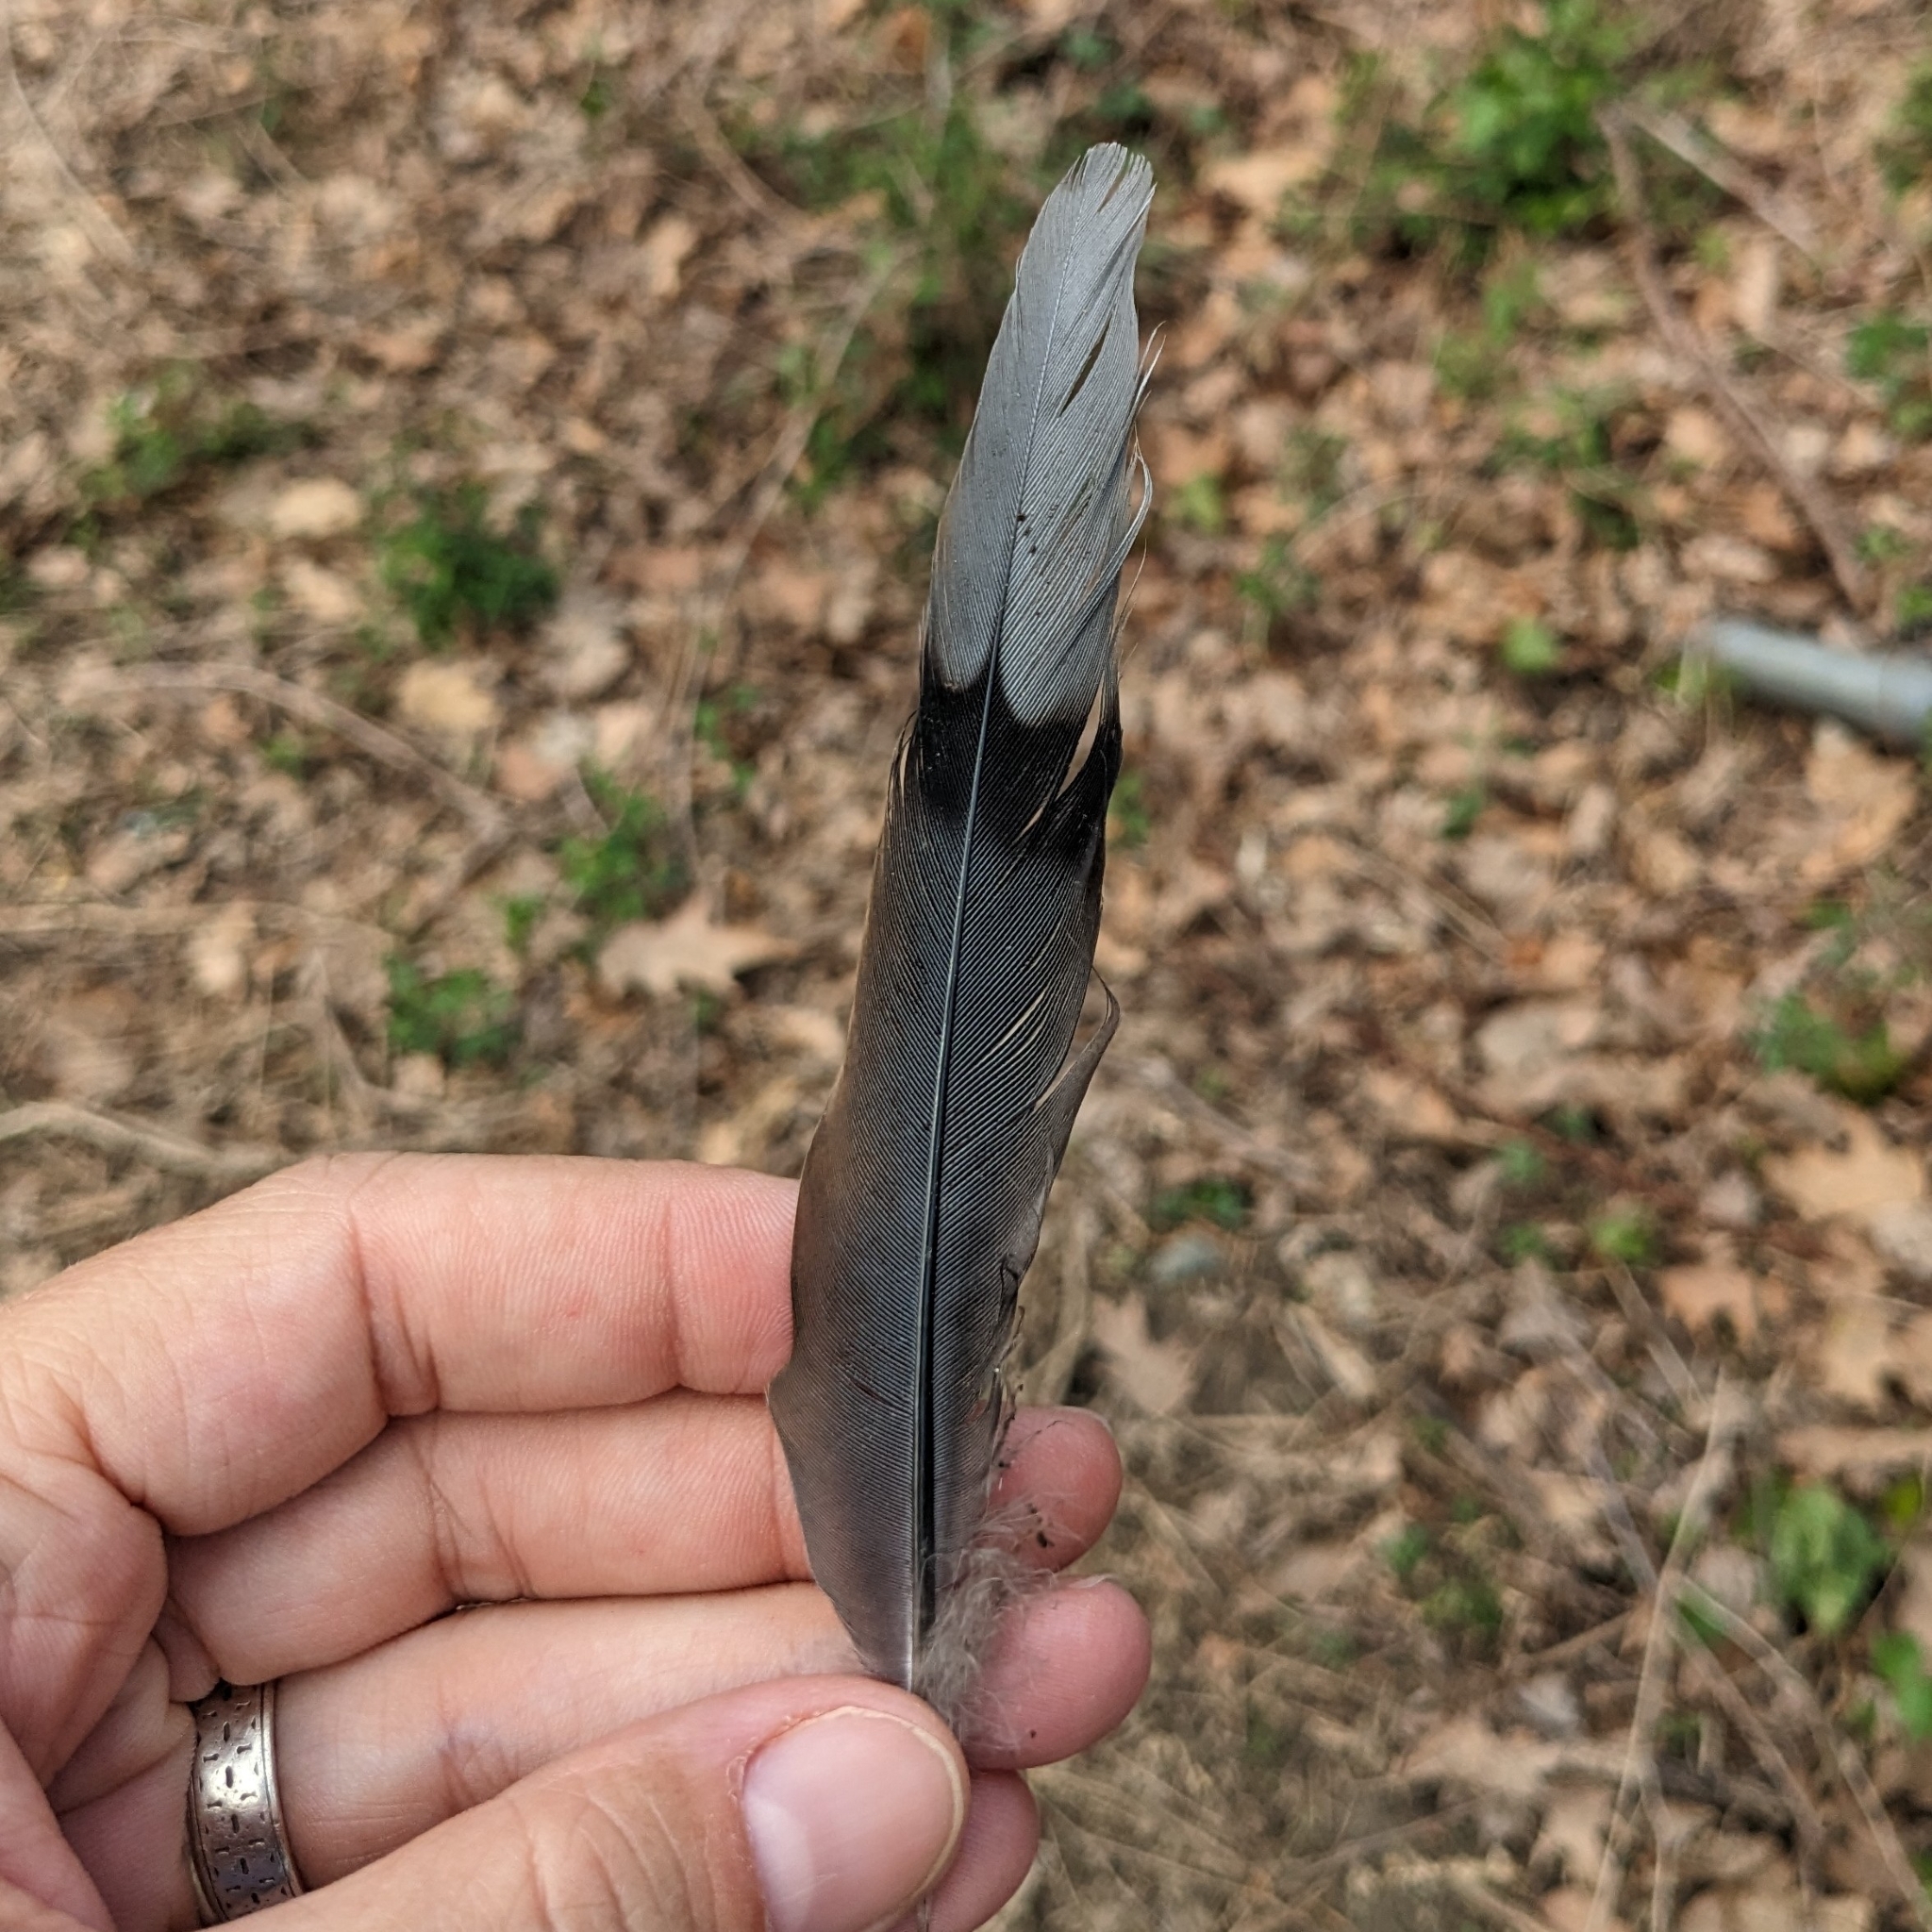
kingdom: Animalia
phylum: Chordata
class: Aves
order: Columbiformes
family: Columbidae
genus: Zenaida
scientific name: Zenaida macroura
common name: Mourning dove
